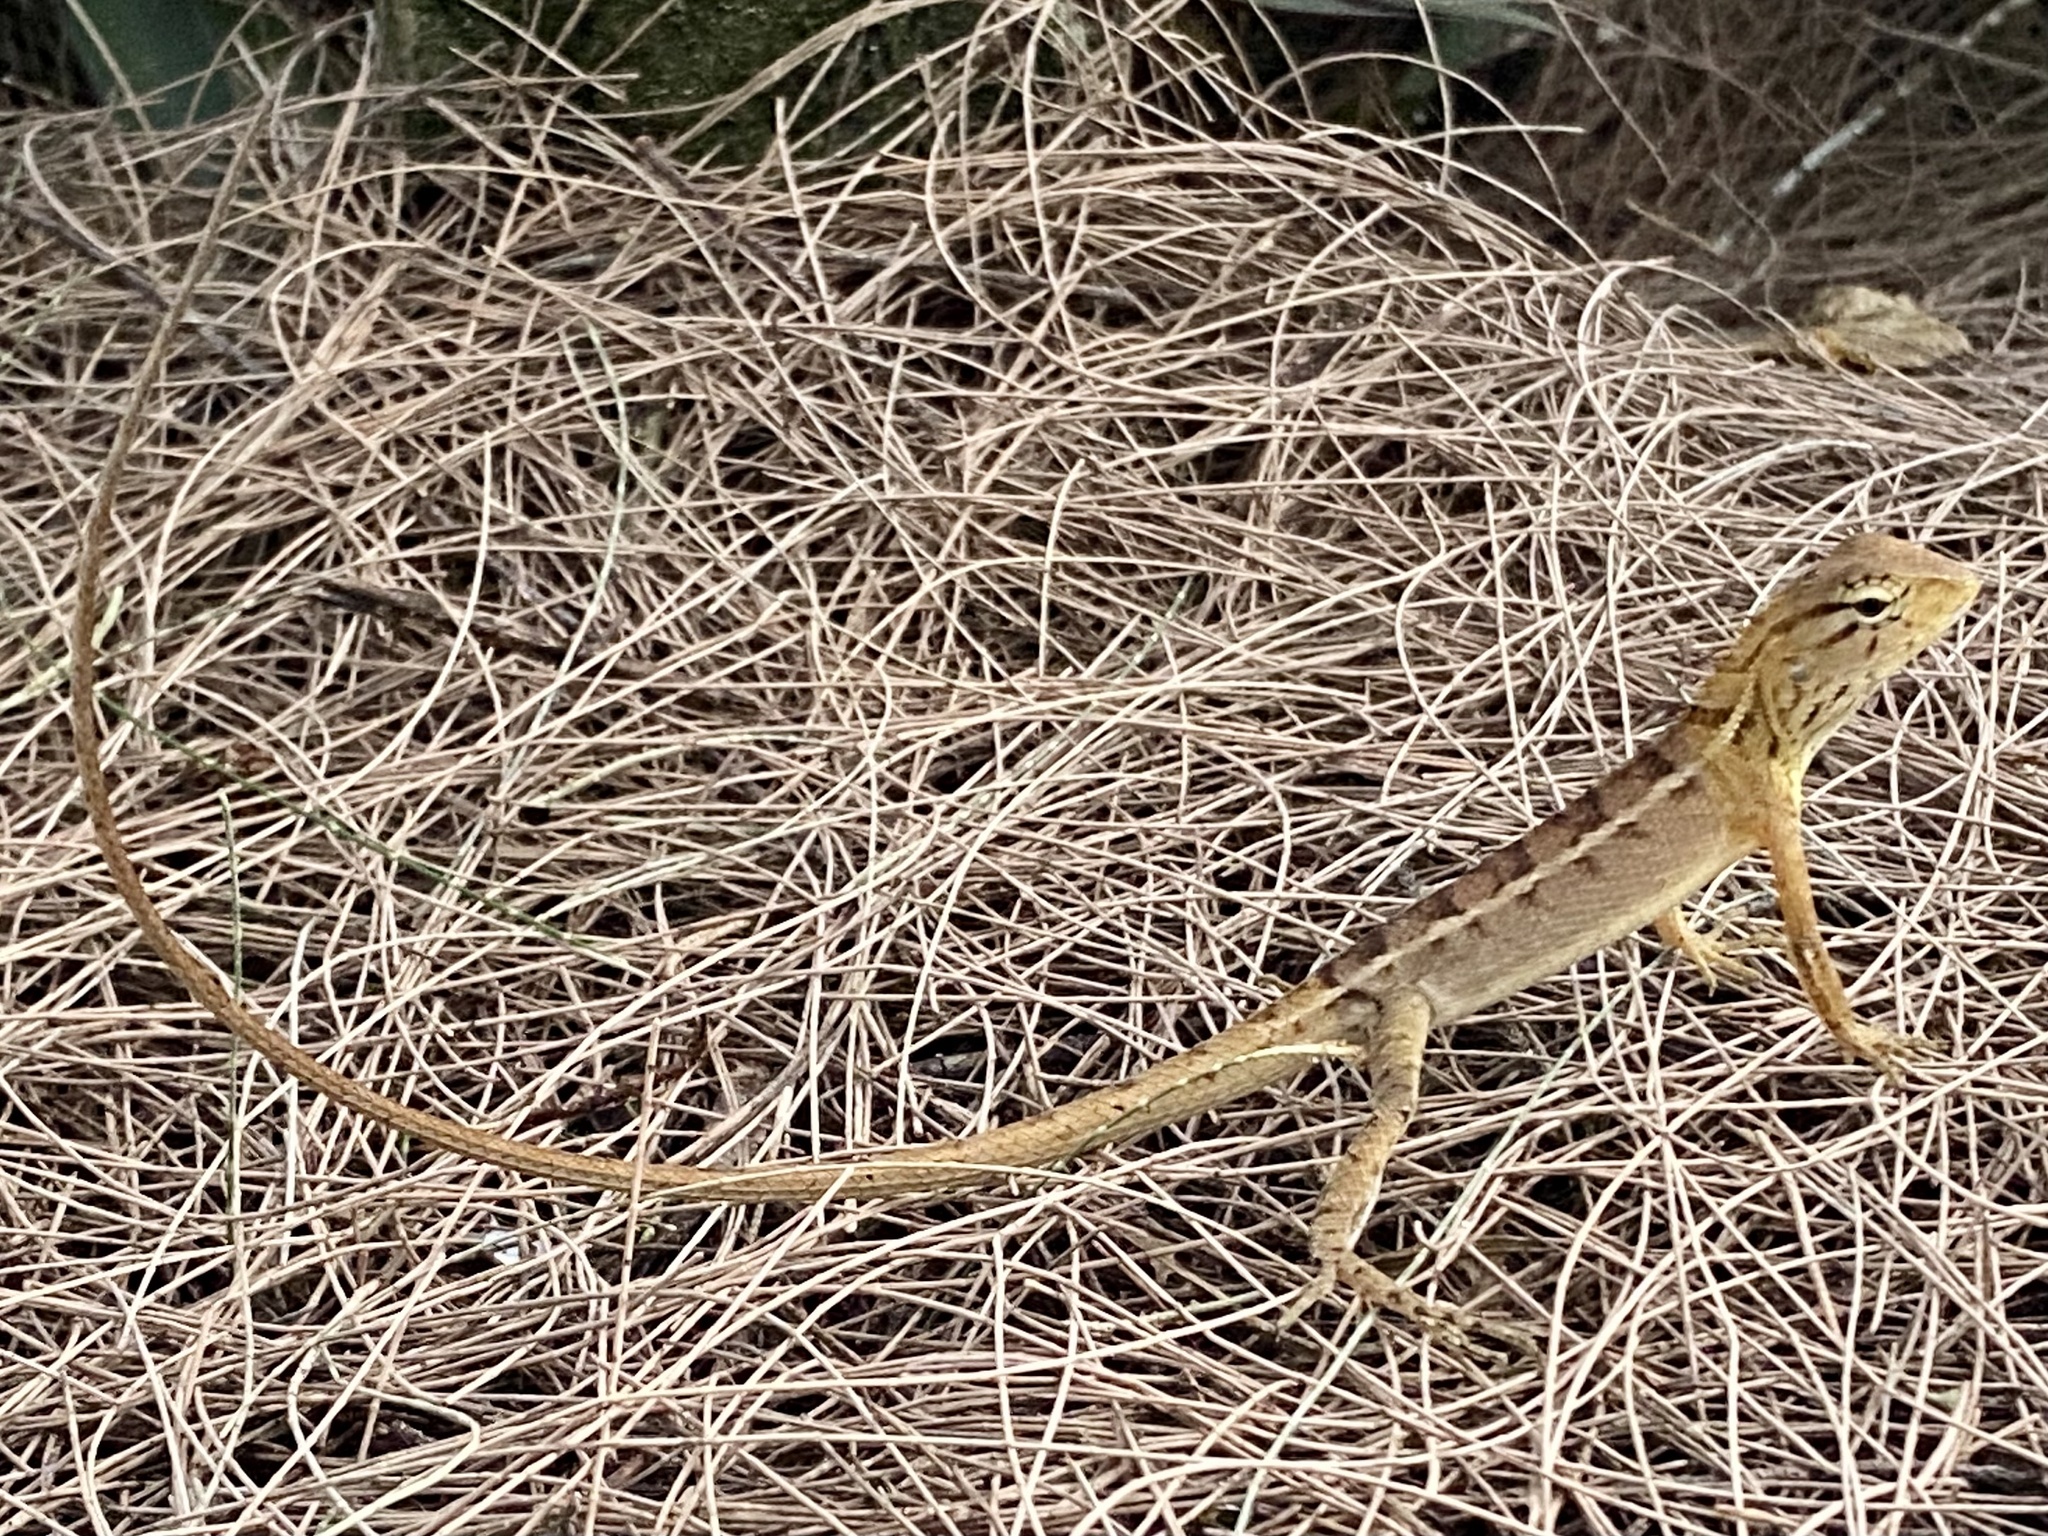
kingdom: Animalia
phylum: Chordata
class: Squamata
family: Agamidae
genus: Calotes
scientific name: Calotes versicolor
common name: Oriental garden lizard
